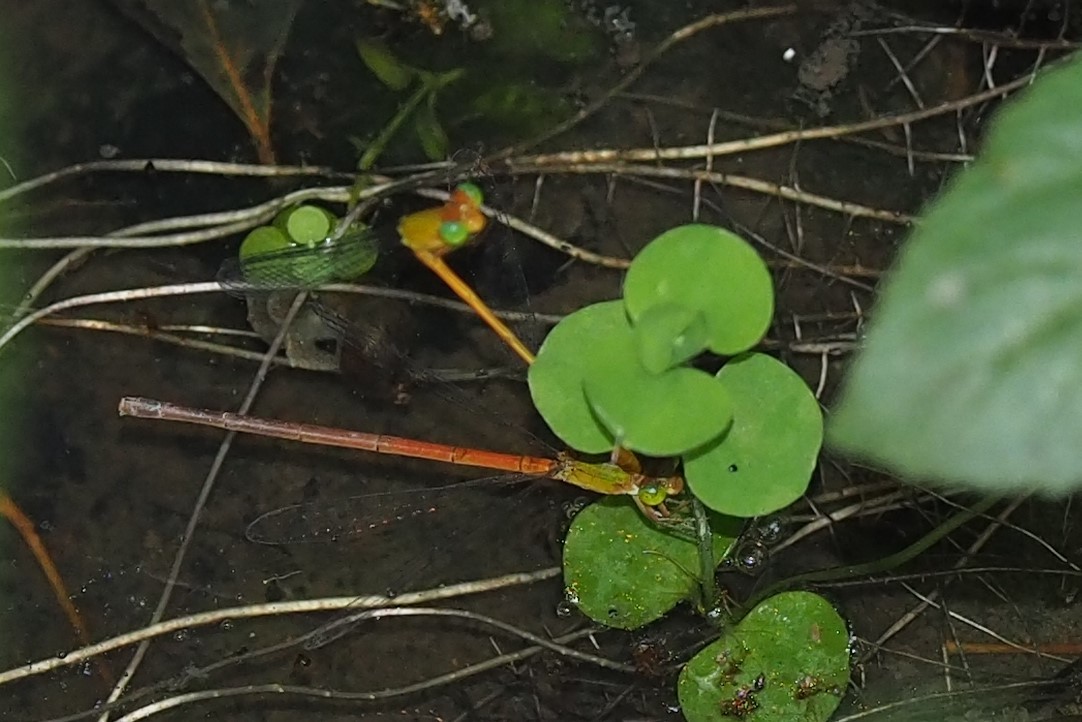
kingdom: Animalia
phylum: Arthropoda
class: Insecta
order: Odonata
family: Coenagrionidae
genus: Ceriagrion
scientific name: Ceriagrion auranticum
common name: Orange-tailed sprite
